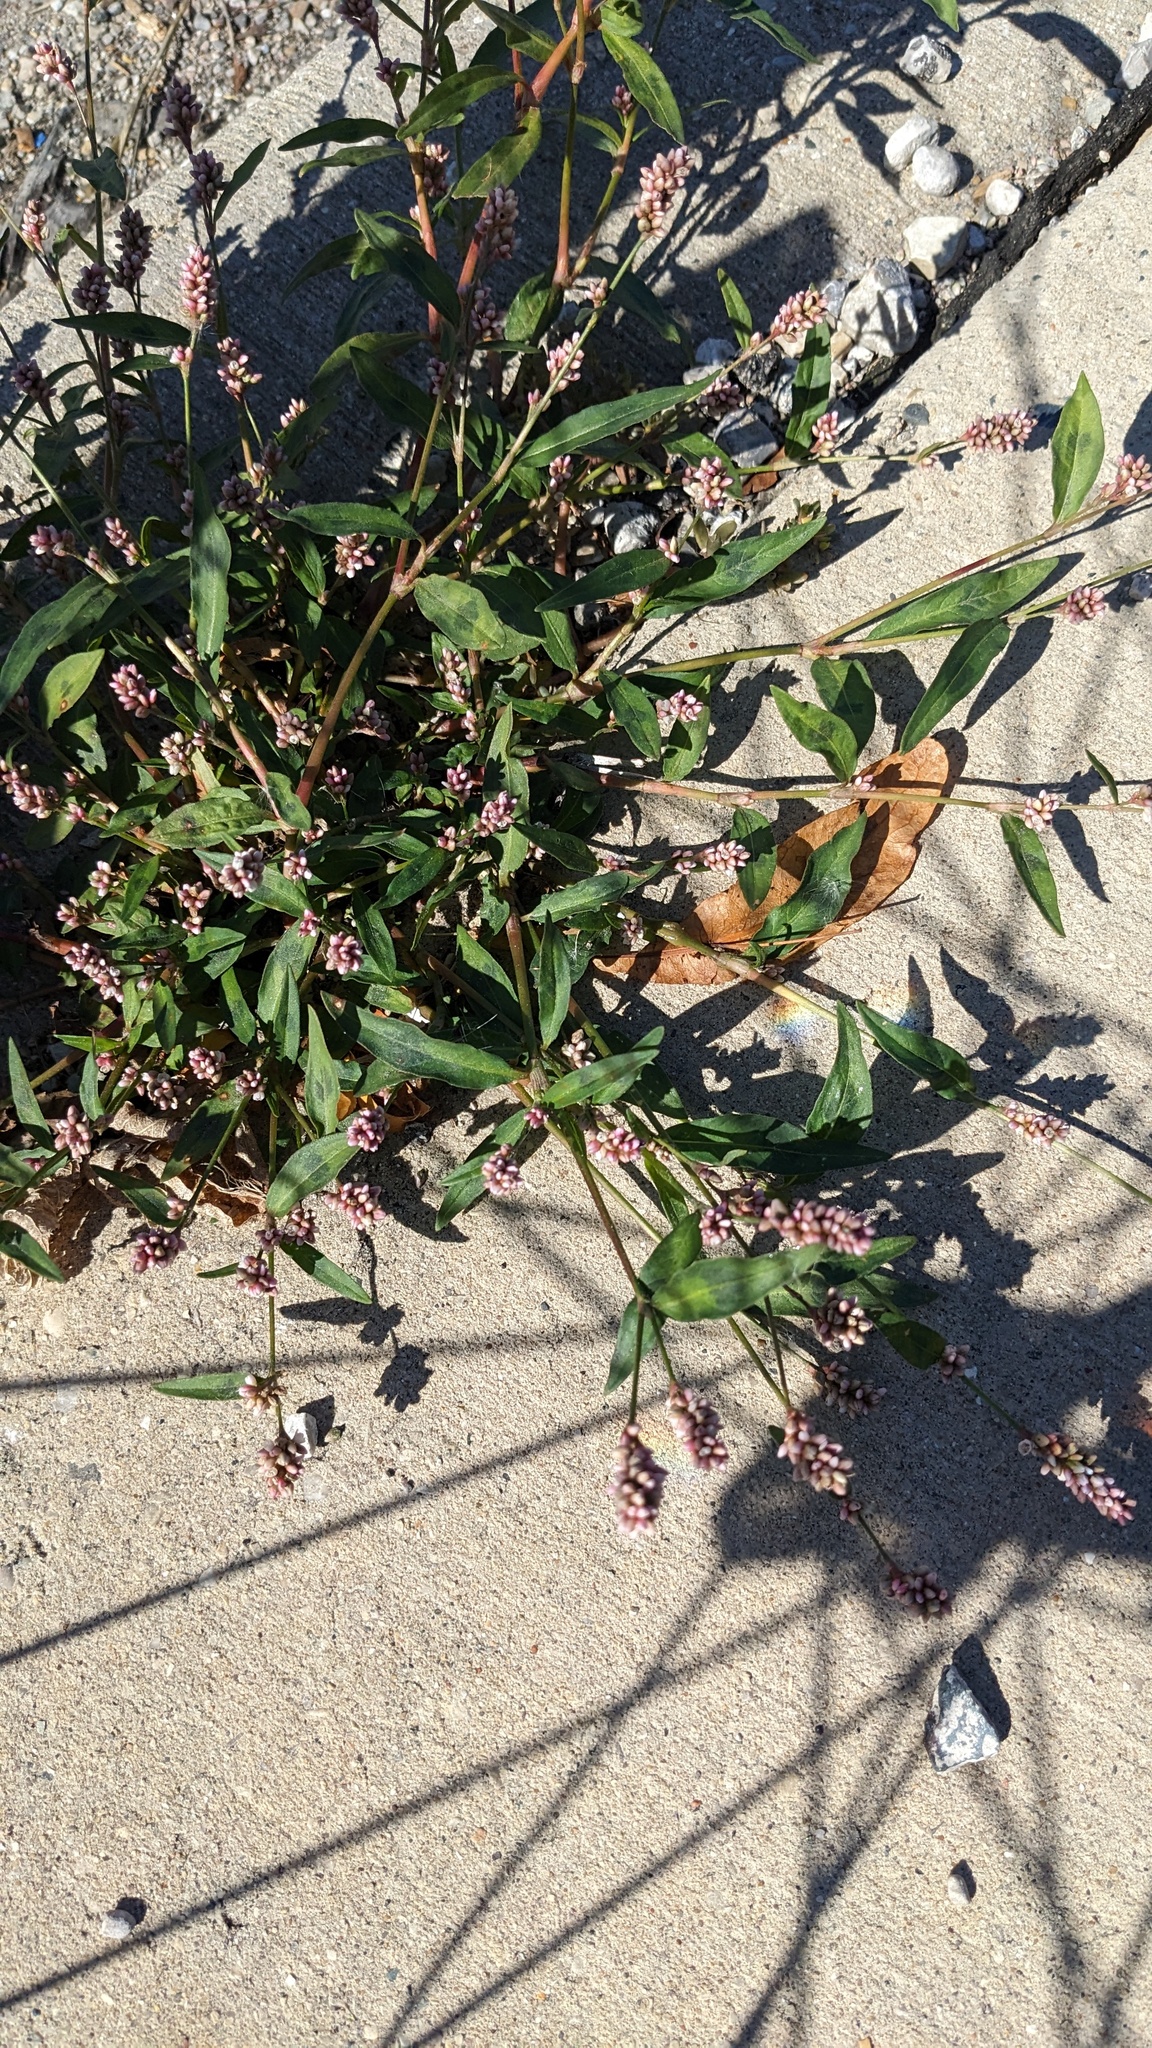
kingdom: Plantae
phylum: Tracheophyta
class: Magnoliopsida
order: Caryophyllales
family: Polygonaceae
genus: Persicaria
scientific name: Persicaria maculosa
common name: Redshank
